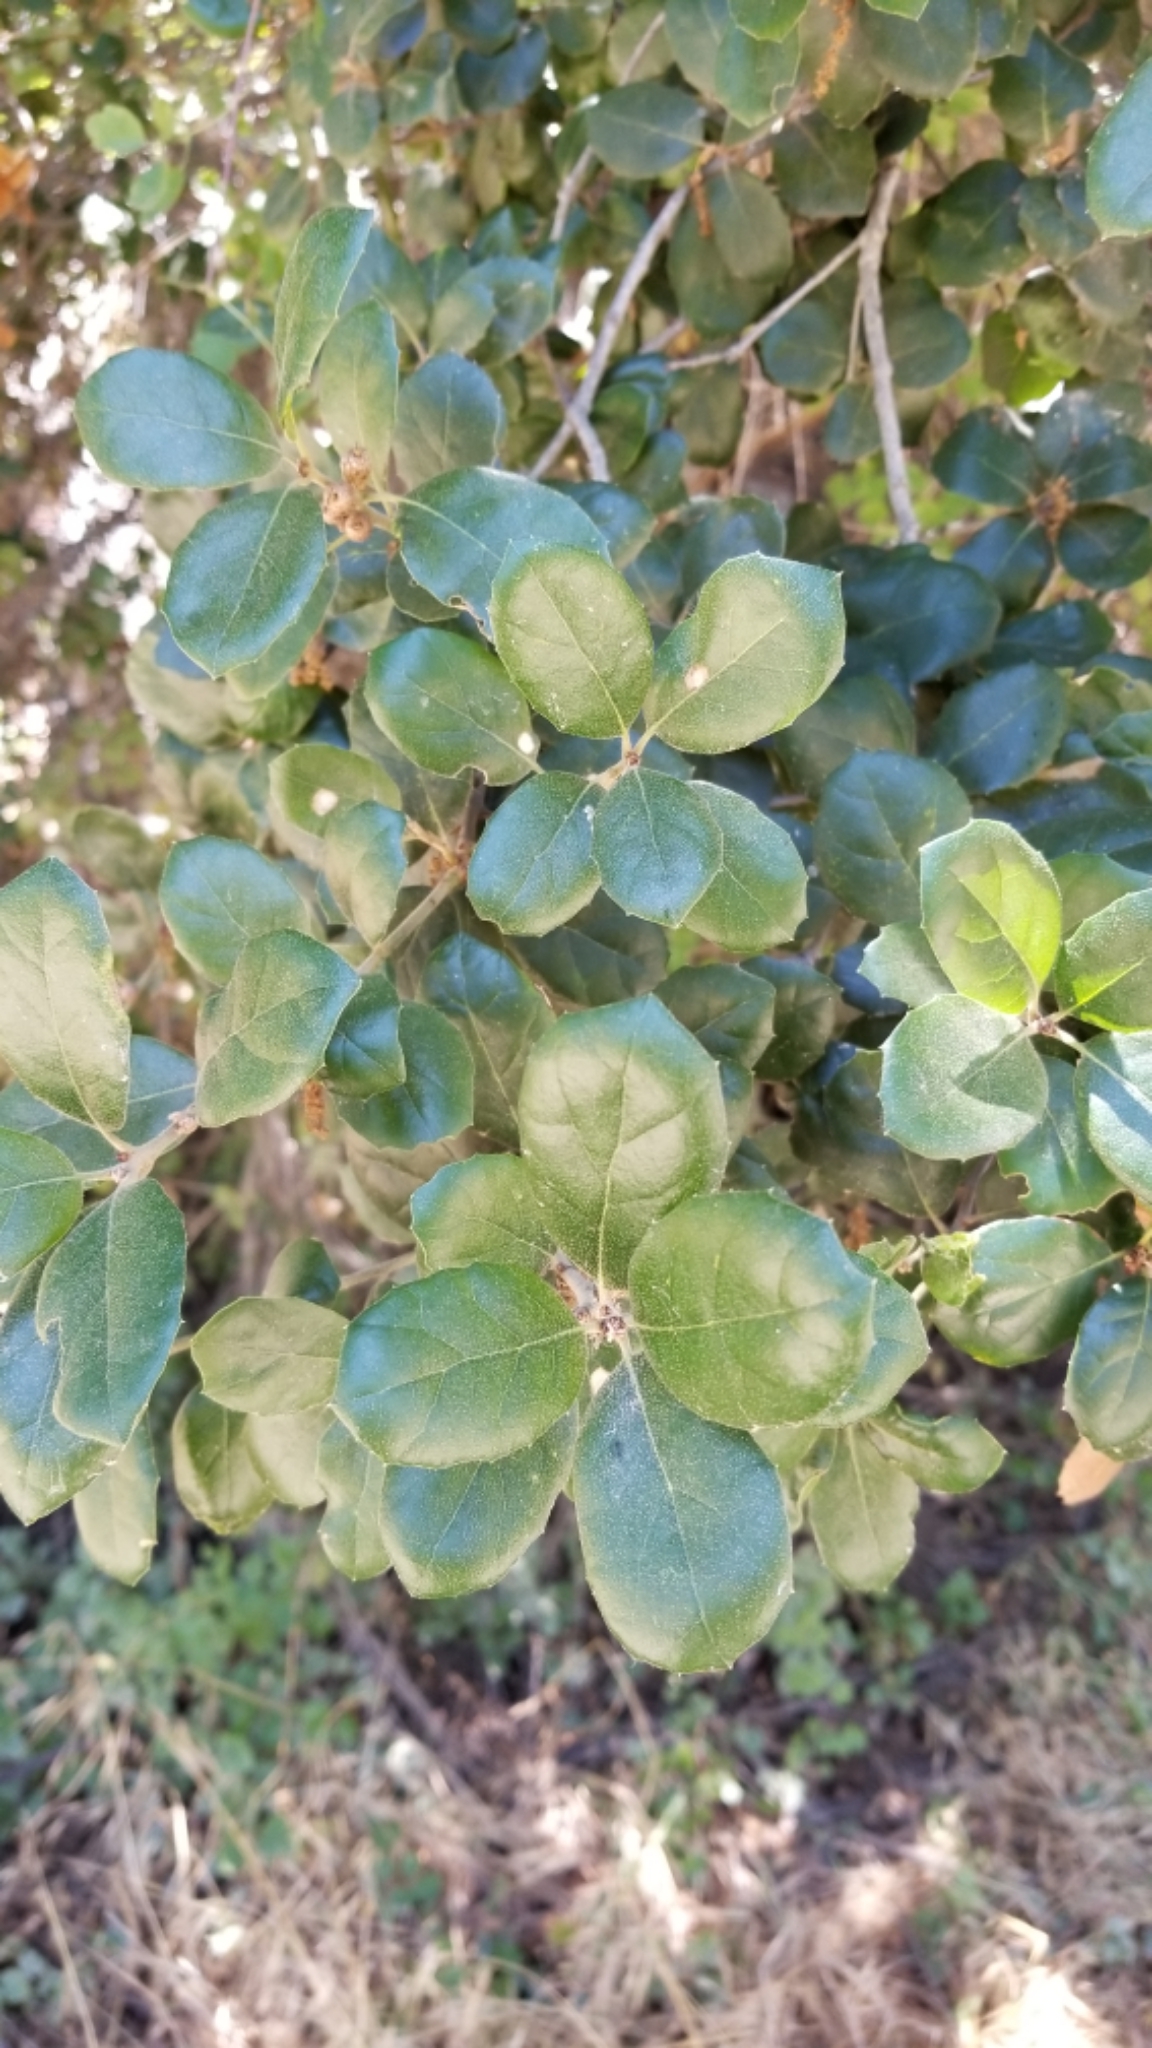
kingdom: Plantae
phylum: Tracheophyta
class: Magnoliopsida
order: Fagales
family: Fagaceae
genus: Quercus
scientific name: Quercus agrifolia
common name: California live oak
